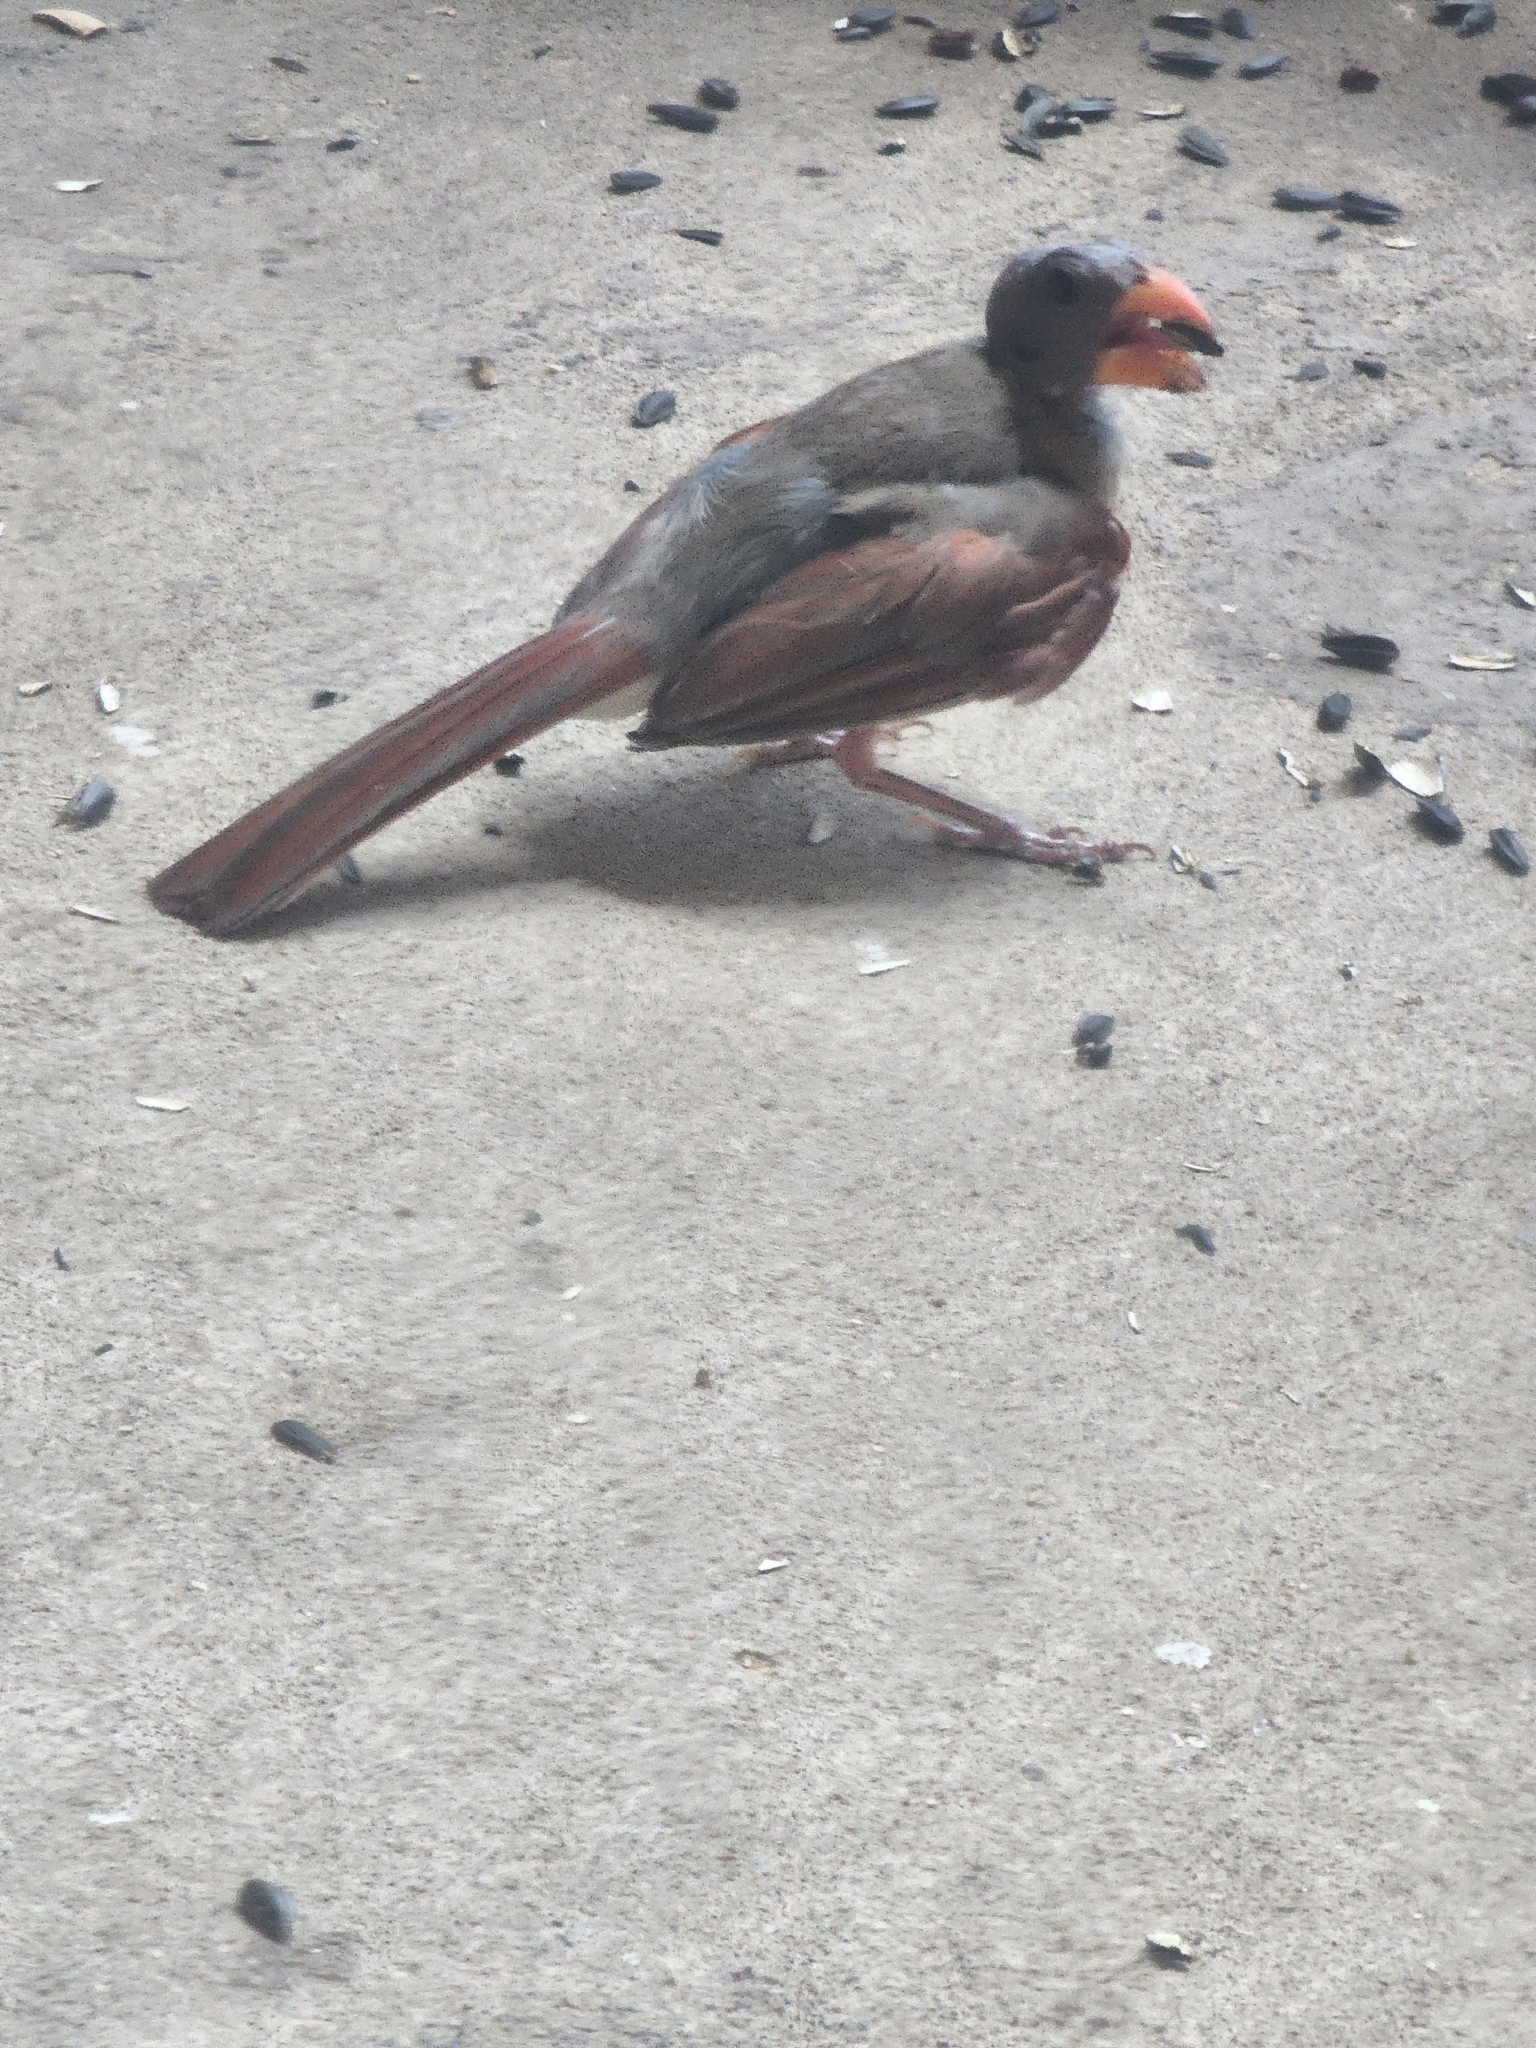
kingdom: Animalia
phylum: Chordata
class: Aves
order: Passeriformes
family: Cardinalidae
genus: Cardinalis
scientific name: Cardinalis cardinalis
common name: Northern cardinal
